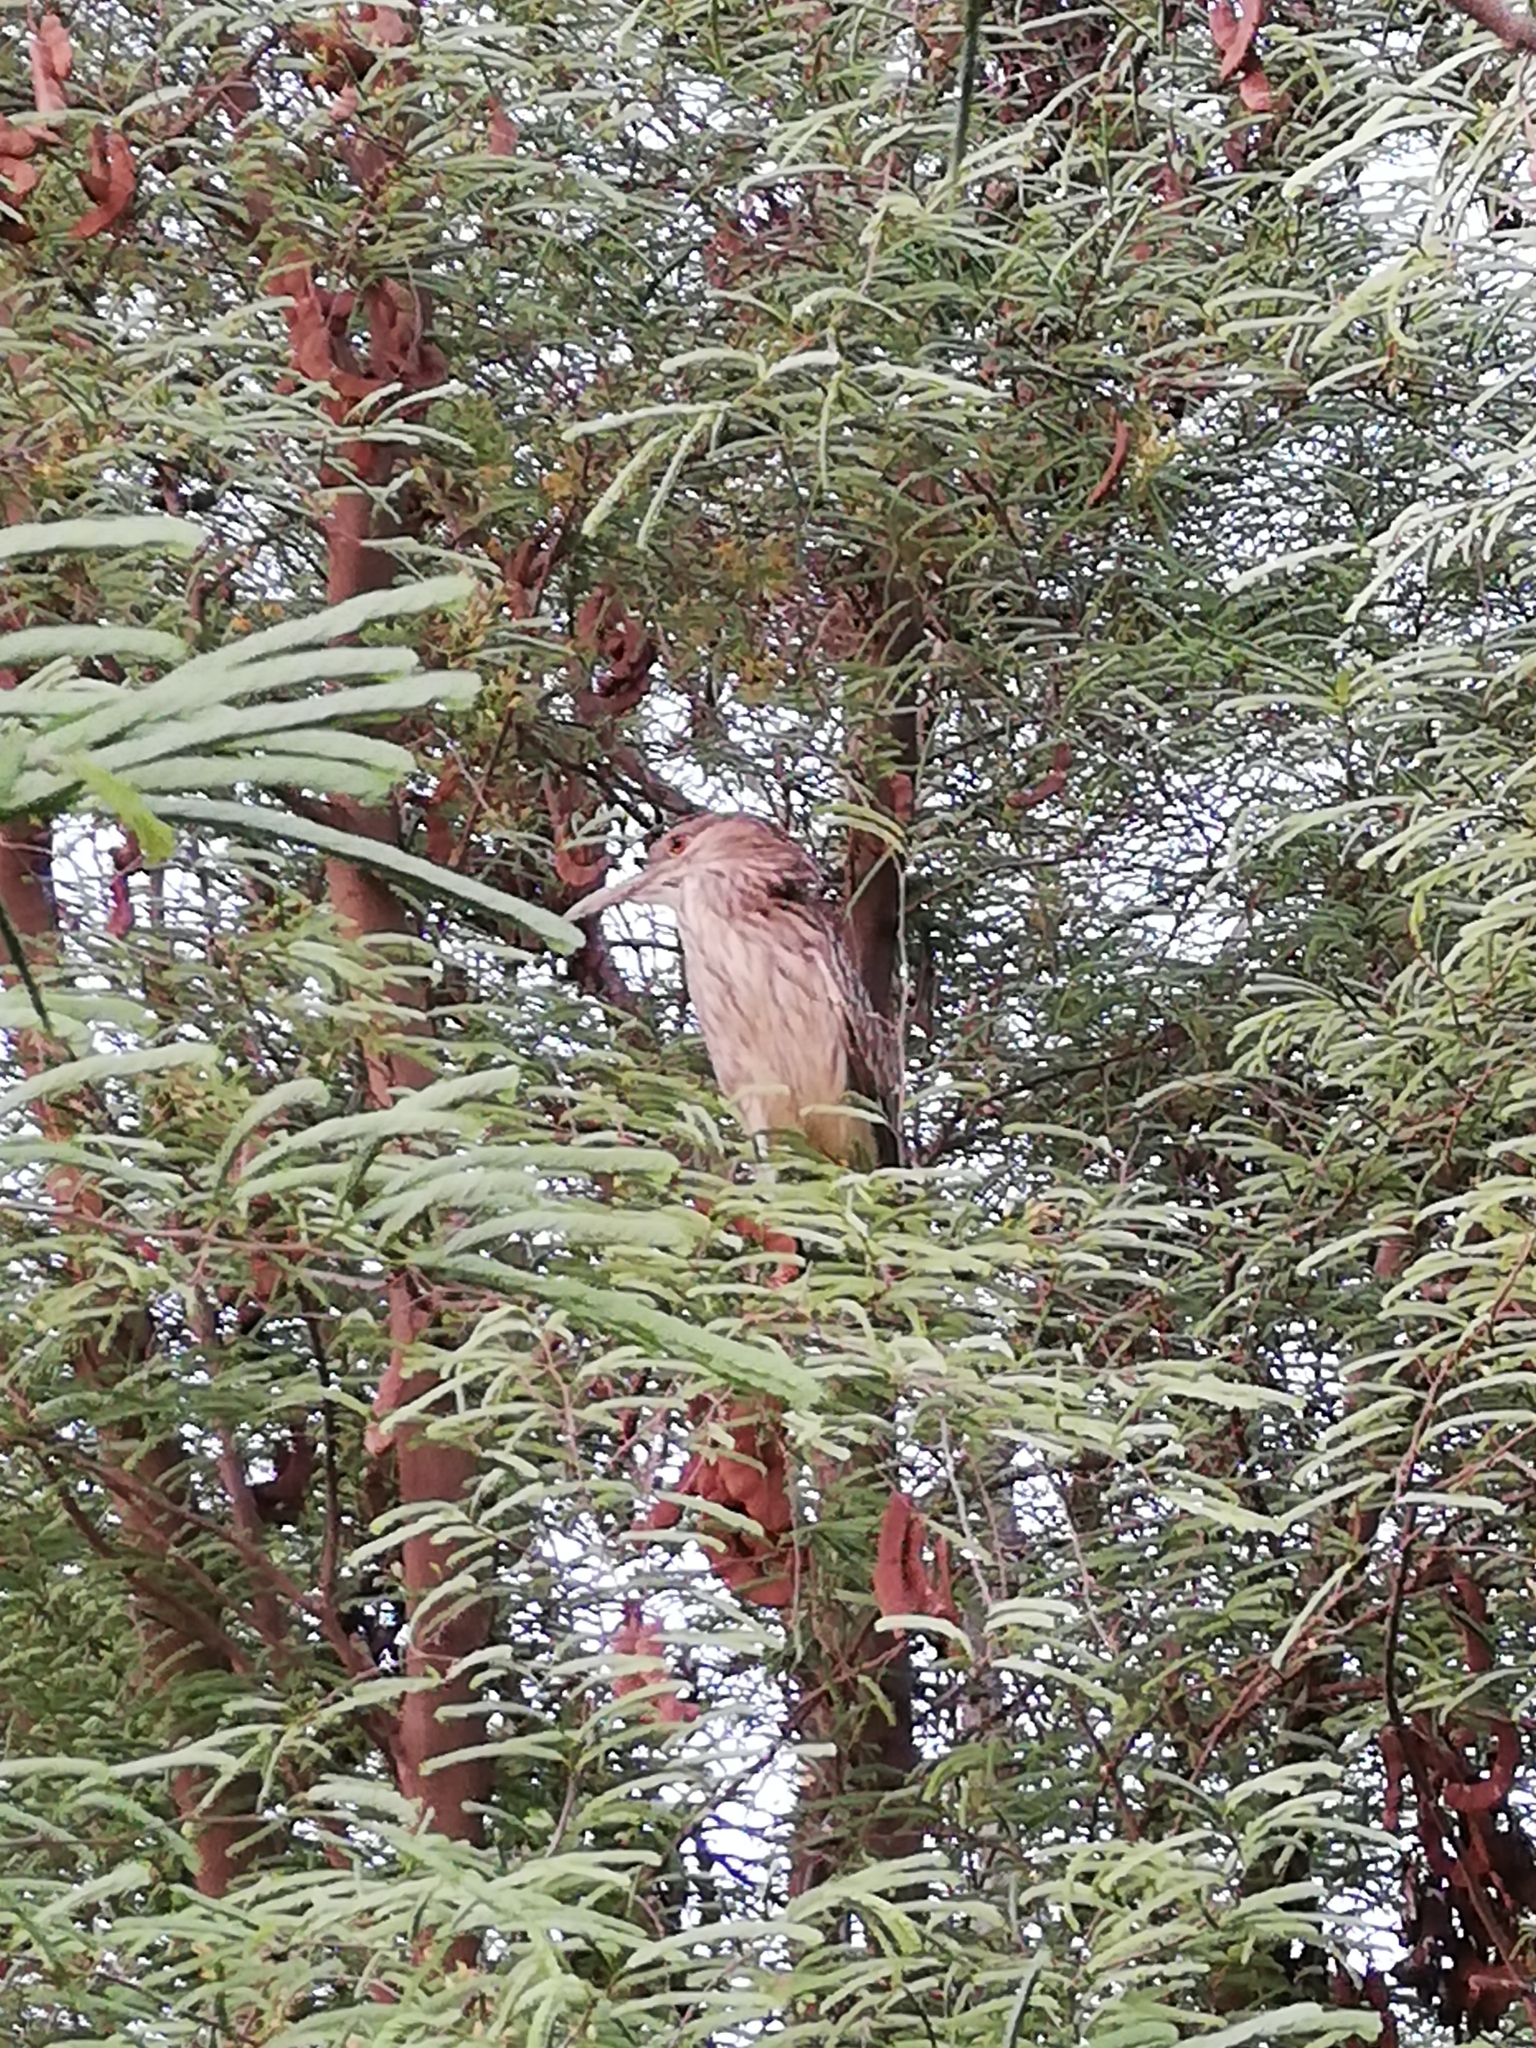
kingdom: Animalia
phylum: Chordata
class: Aves
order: Pelecaniformes
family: Ardeidae
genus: Nycticorax
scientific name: Nycticorax nycticorax
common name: Black-crowned night heron
